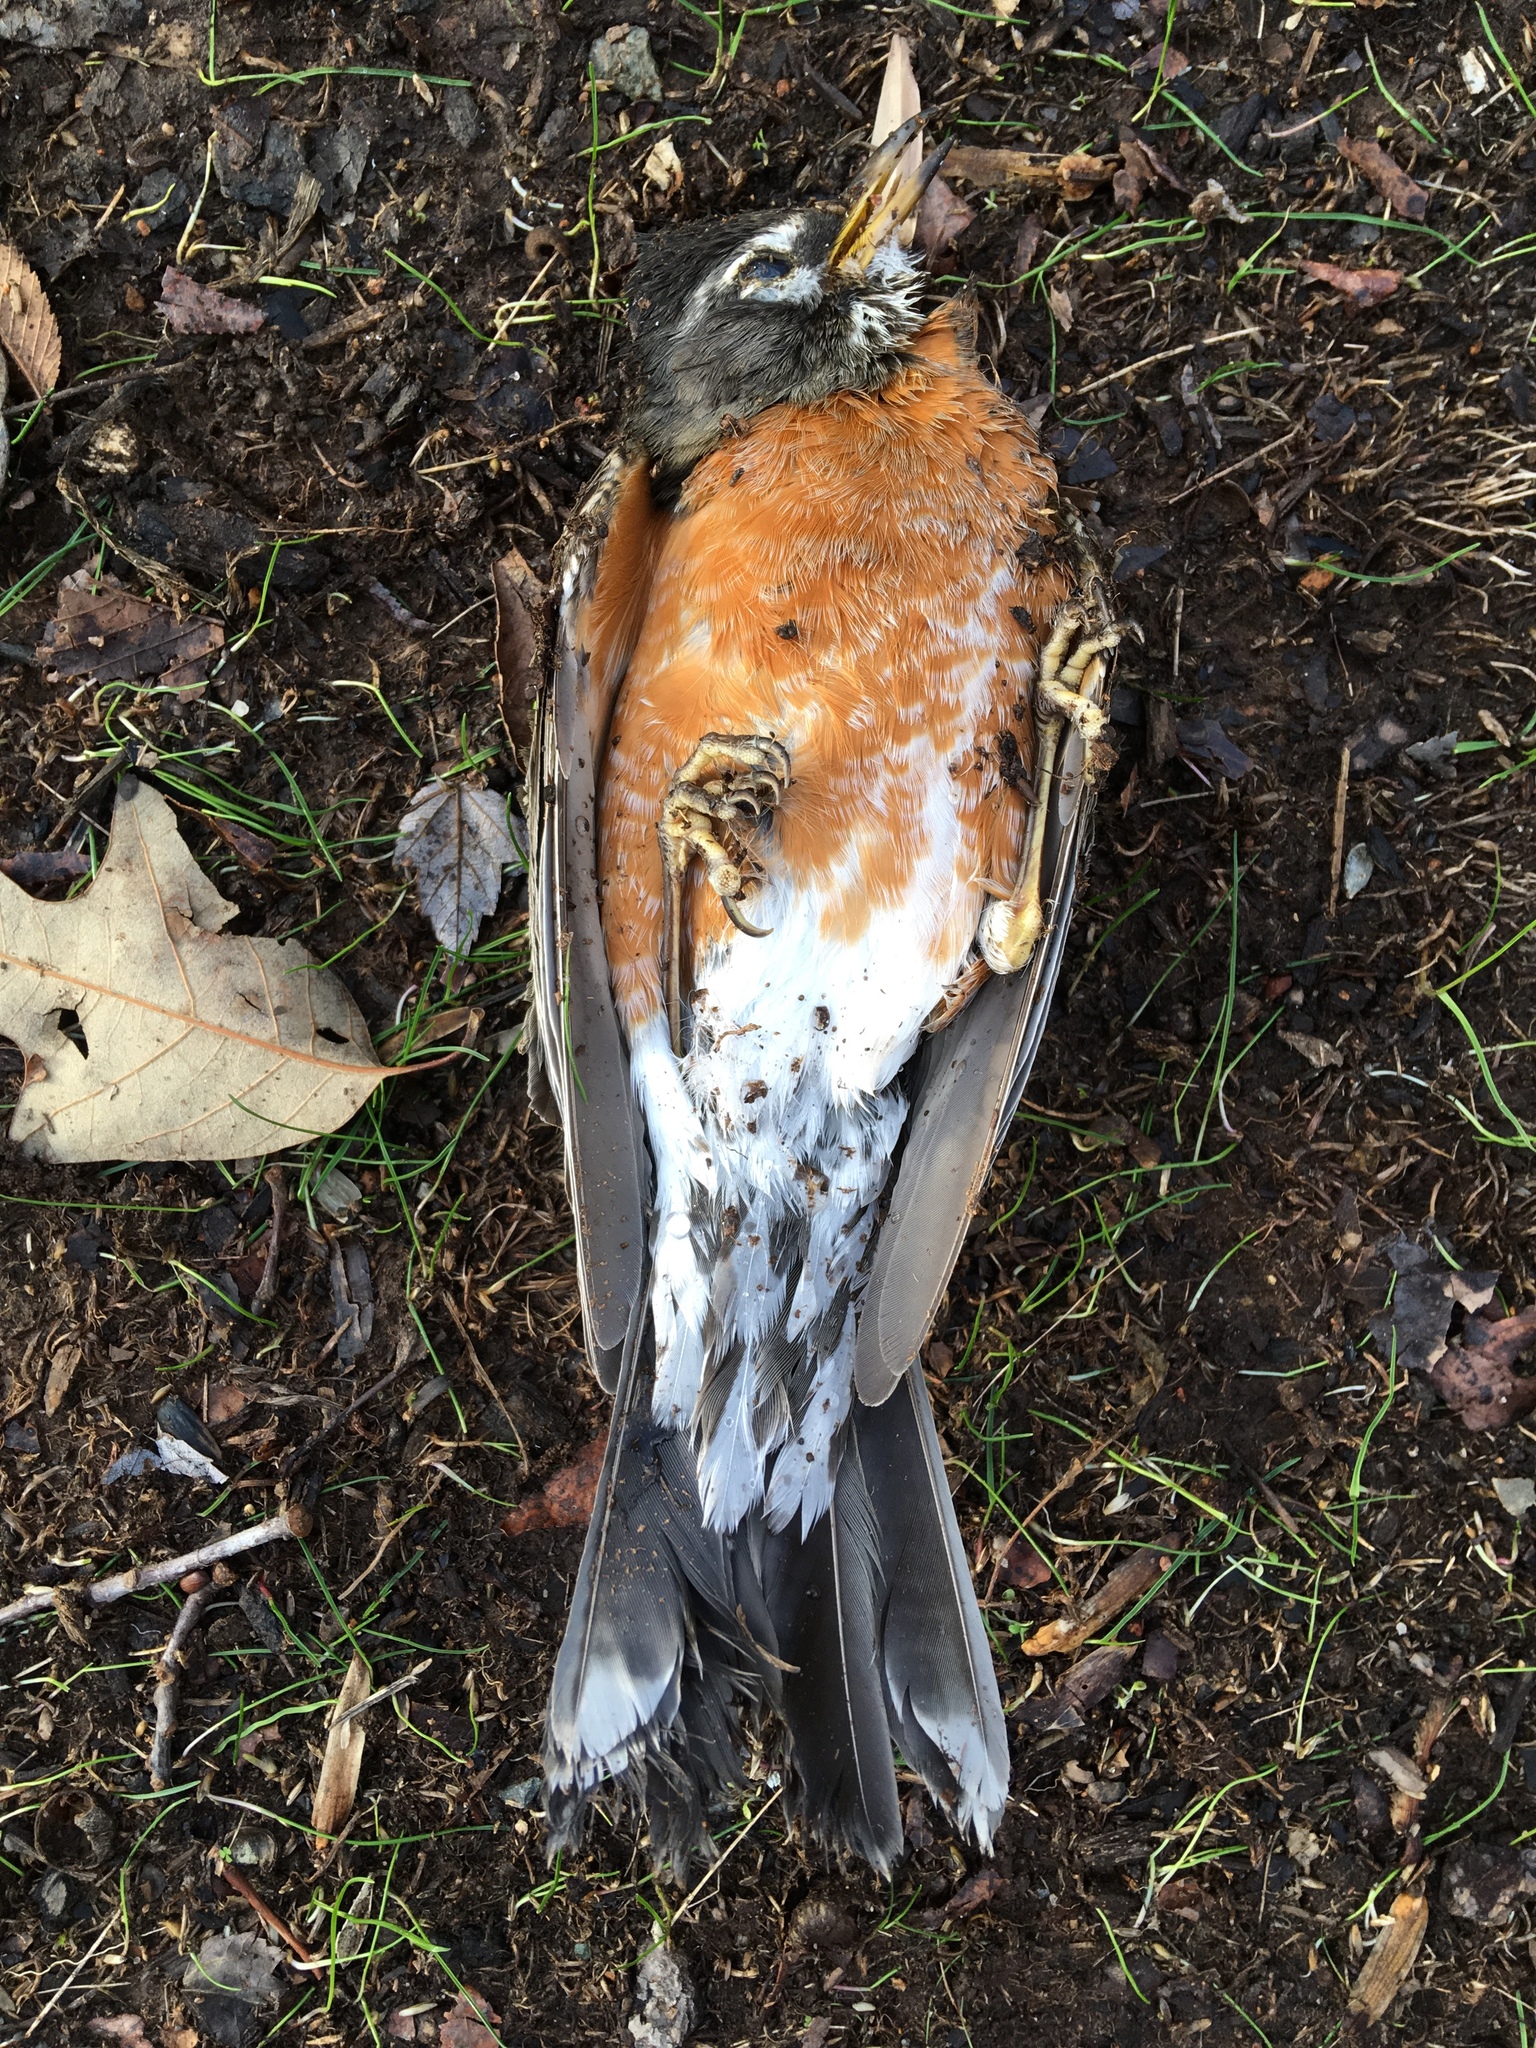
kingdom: Animalia
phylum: Chordata
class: Aves
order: Passeriformes
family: Turdidae
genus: Turdus
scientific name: Turdus migratorius
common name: American robin
